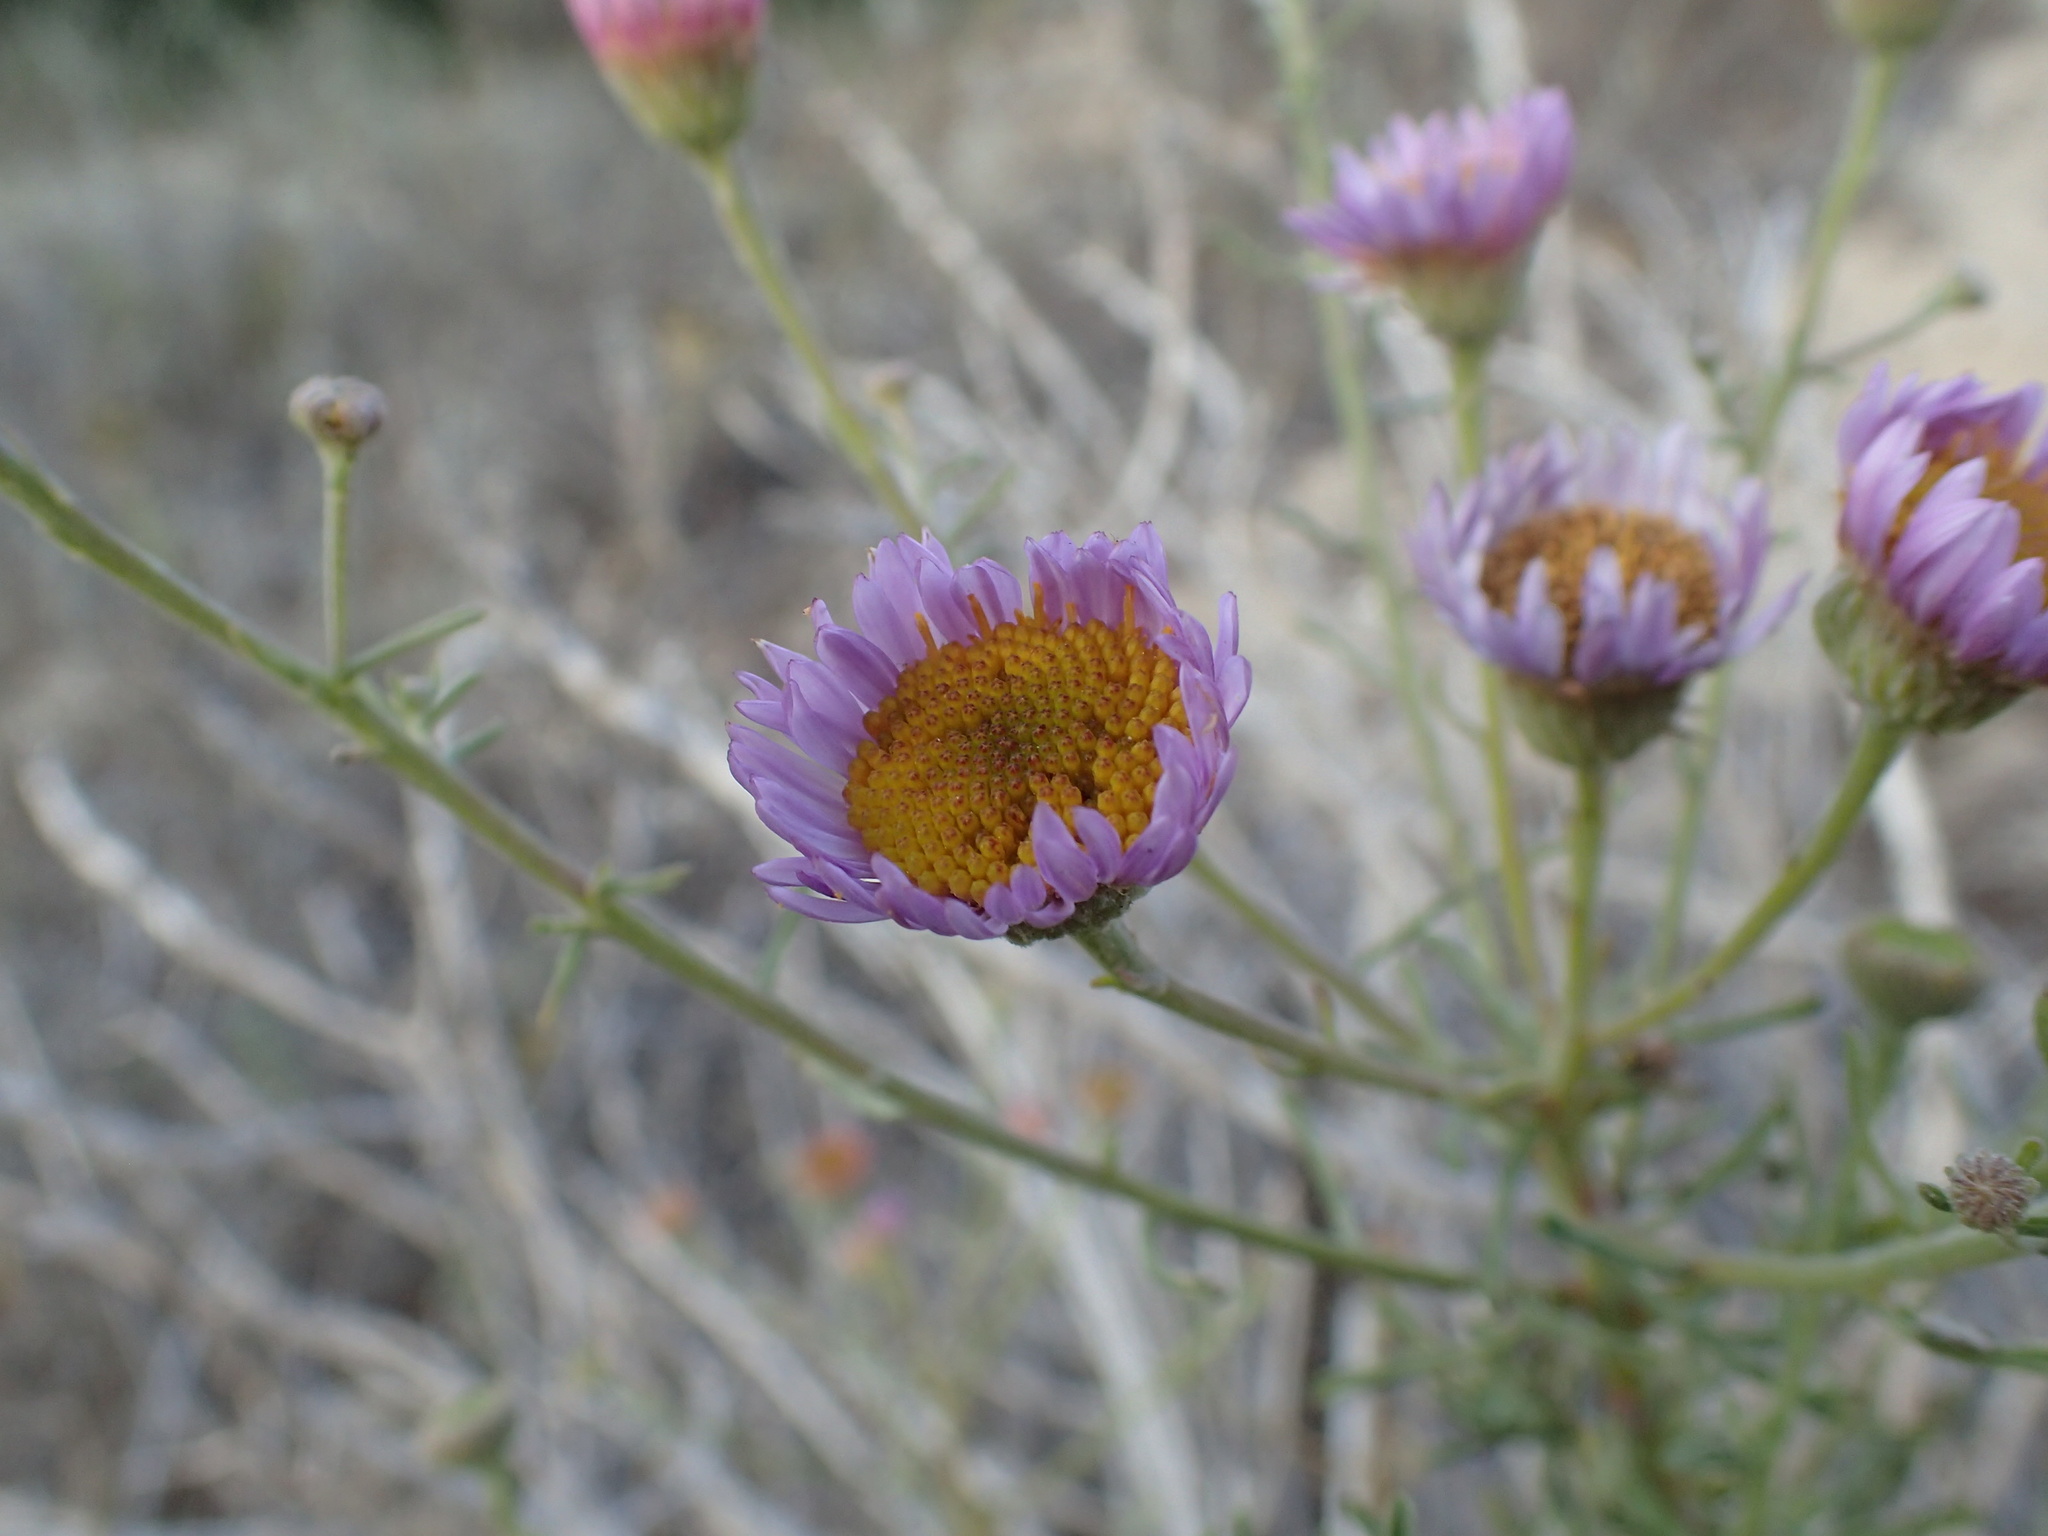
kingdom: Plantae
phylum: Tracheophyta
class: Magnoliopsida
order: Asterales
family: Asteraceae
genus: Erigeron
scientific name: Erigeron blochmaniae
